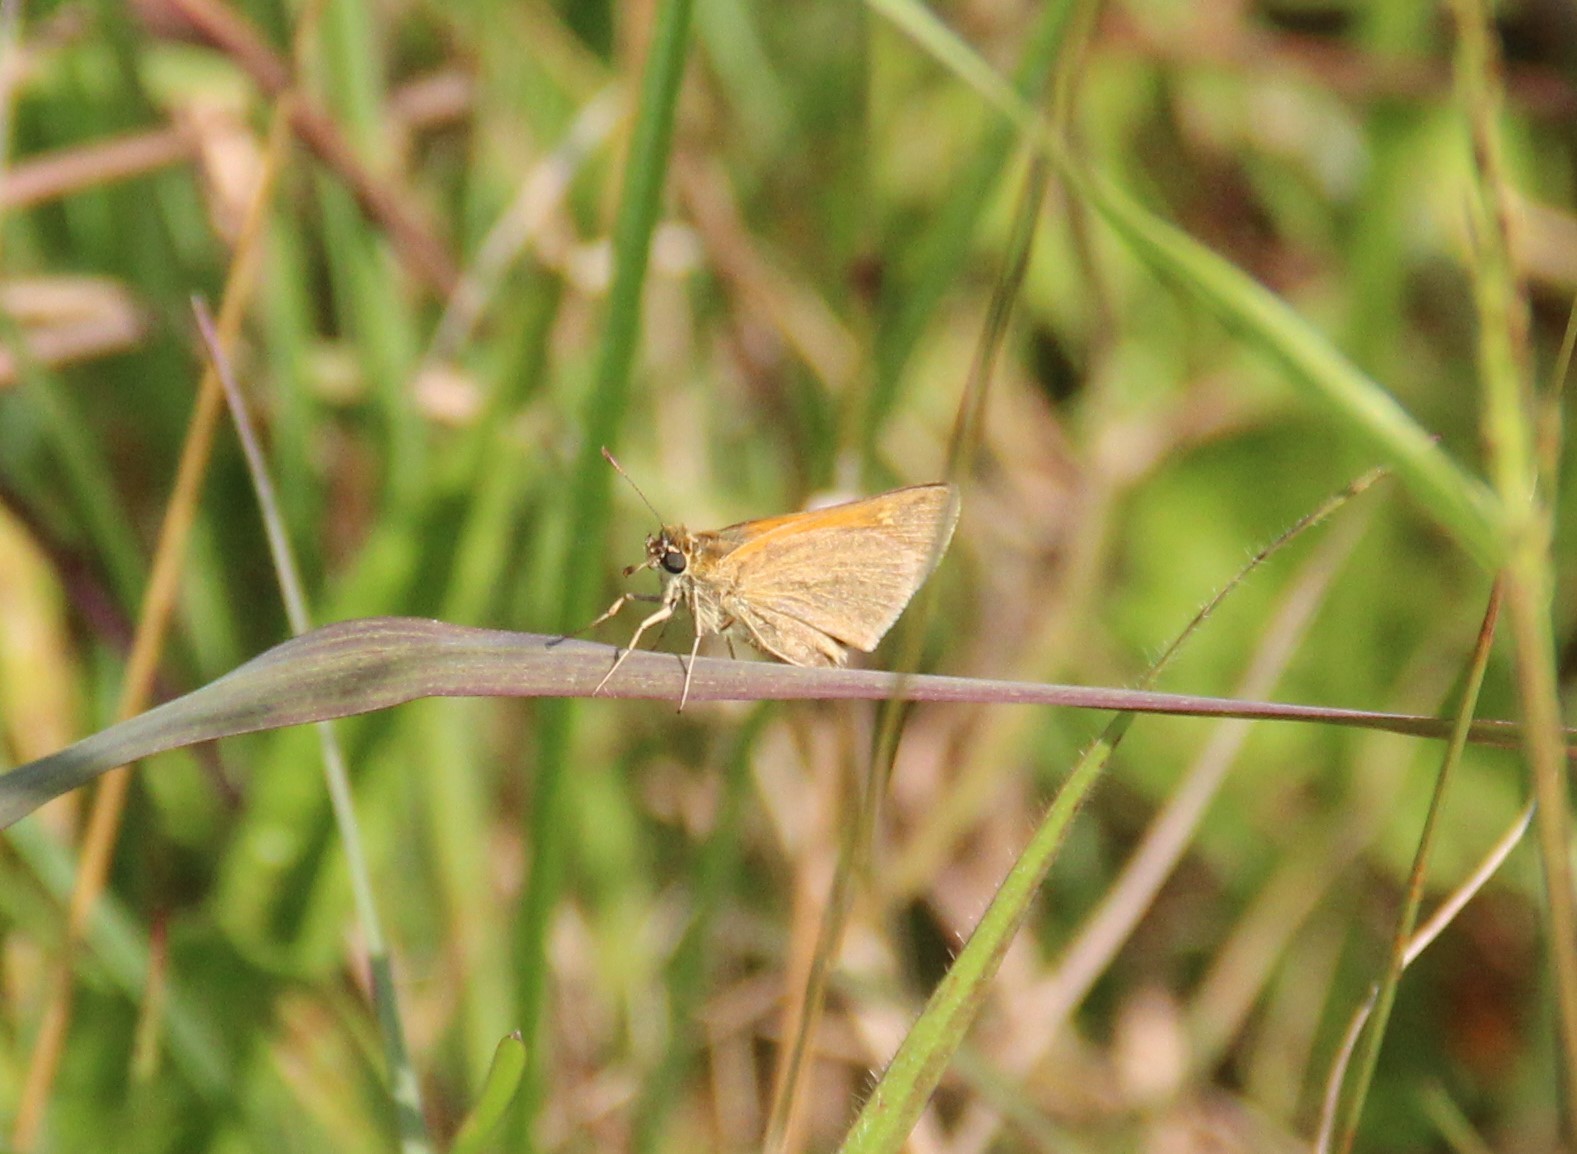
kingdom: Animalia
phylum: Arthropoda
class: Insecta
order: Lepidoptera
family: Hesperiidae
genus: Polites
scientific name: Polites themistocles
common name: Tawny-edged skipper
